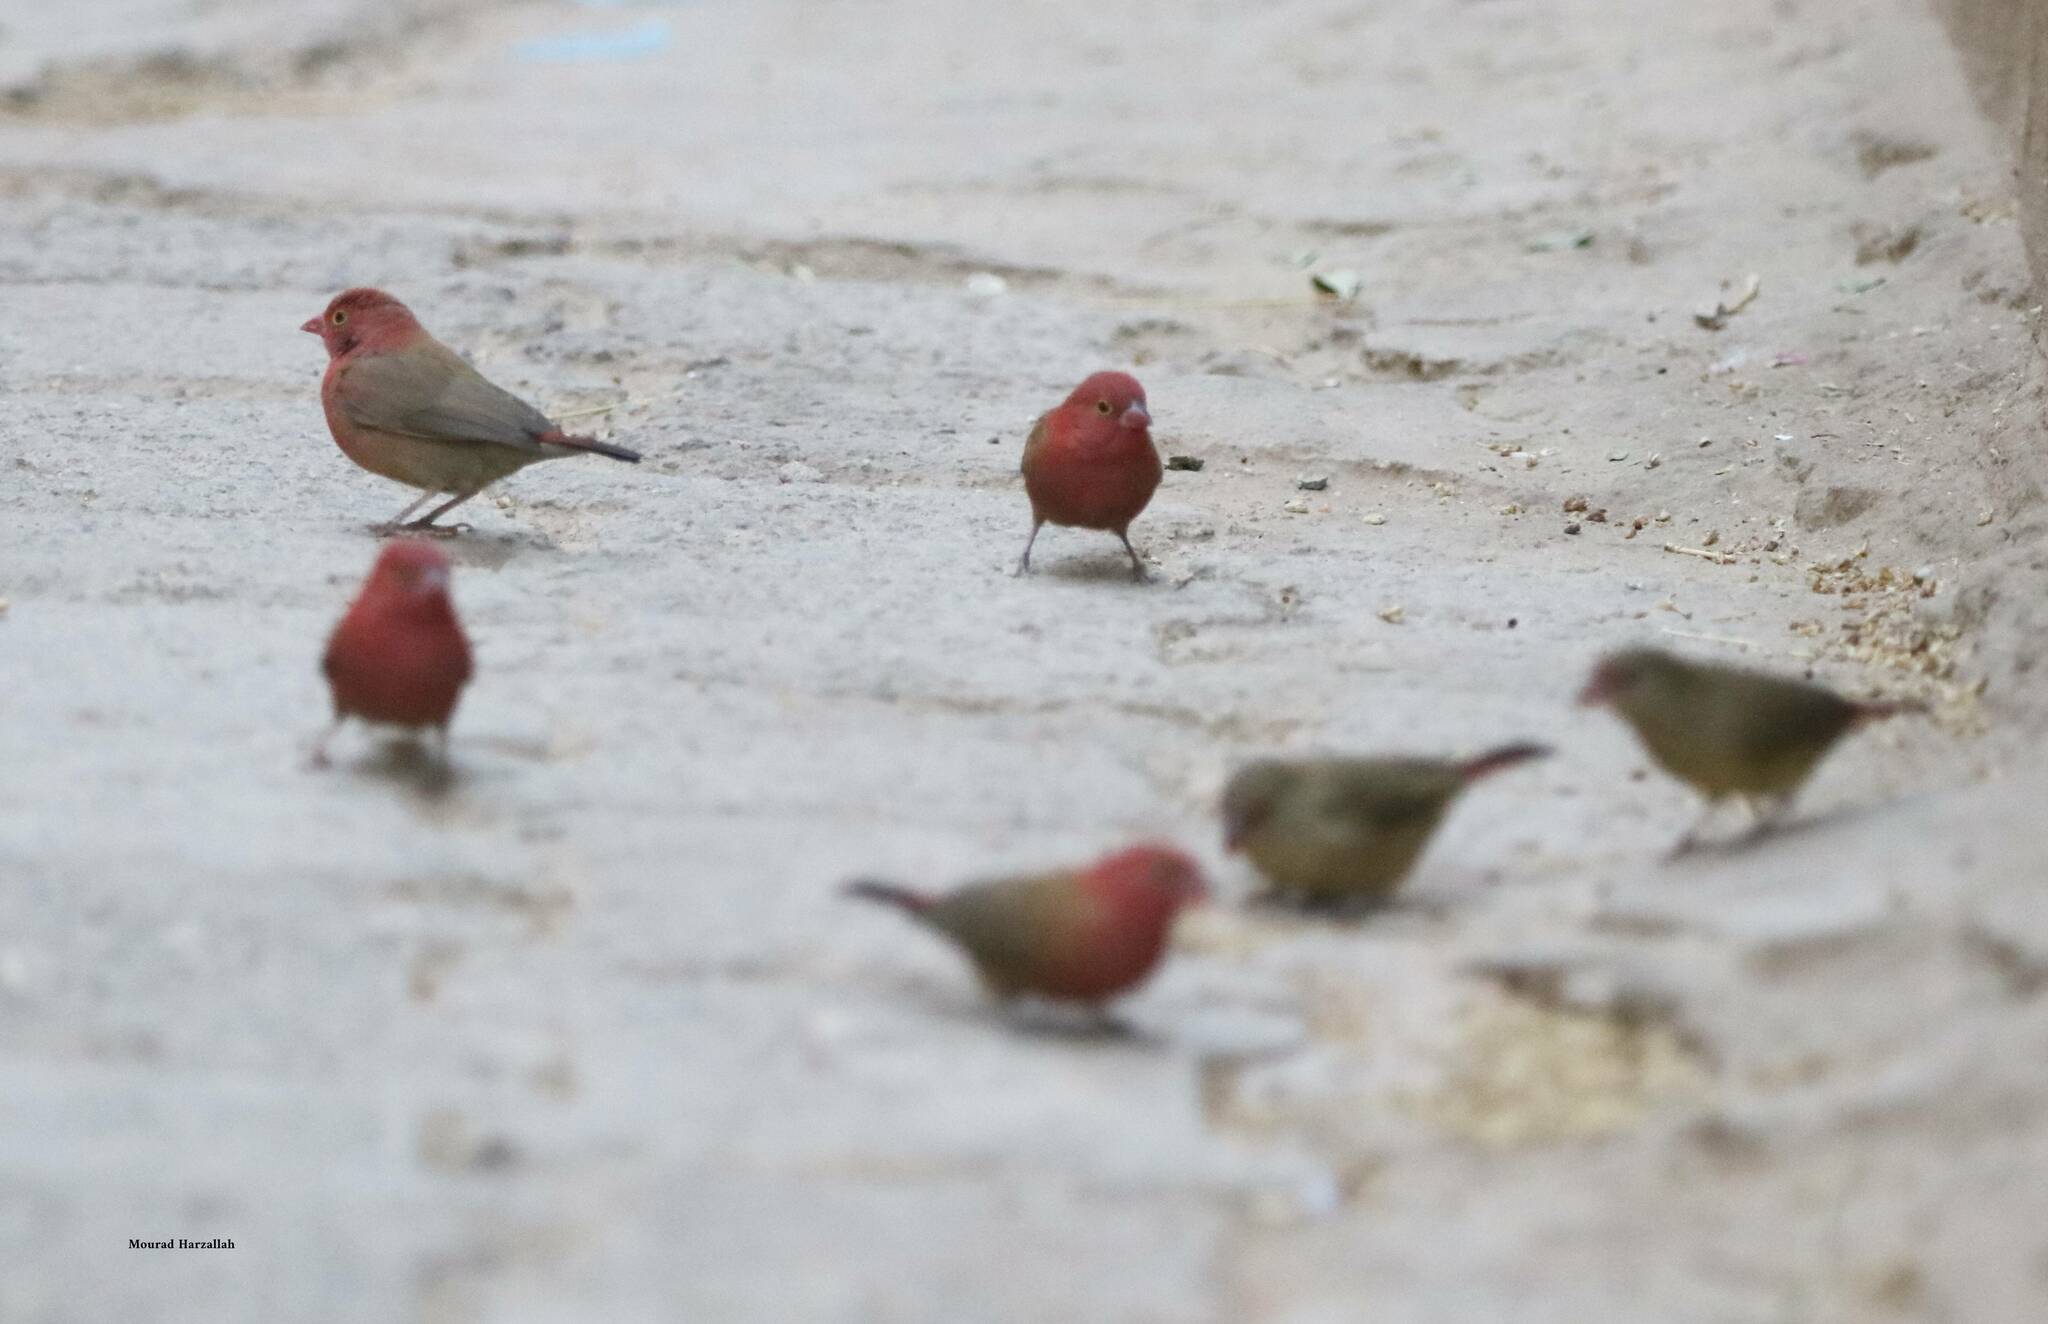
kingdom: Animalia
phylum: Chordata
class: Aves
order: Passeriformes
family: Estrildidae
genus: Lagonosticta
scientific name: Lagonosticta senegala
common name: Red-billed firefinch
